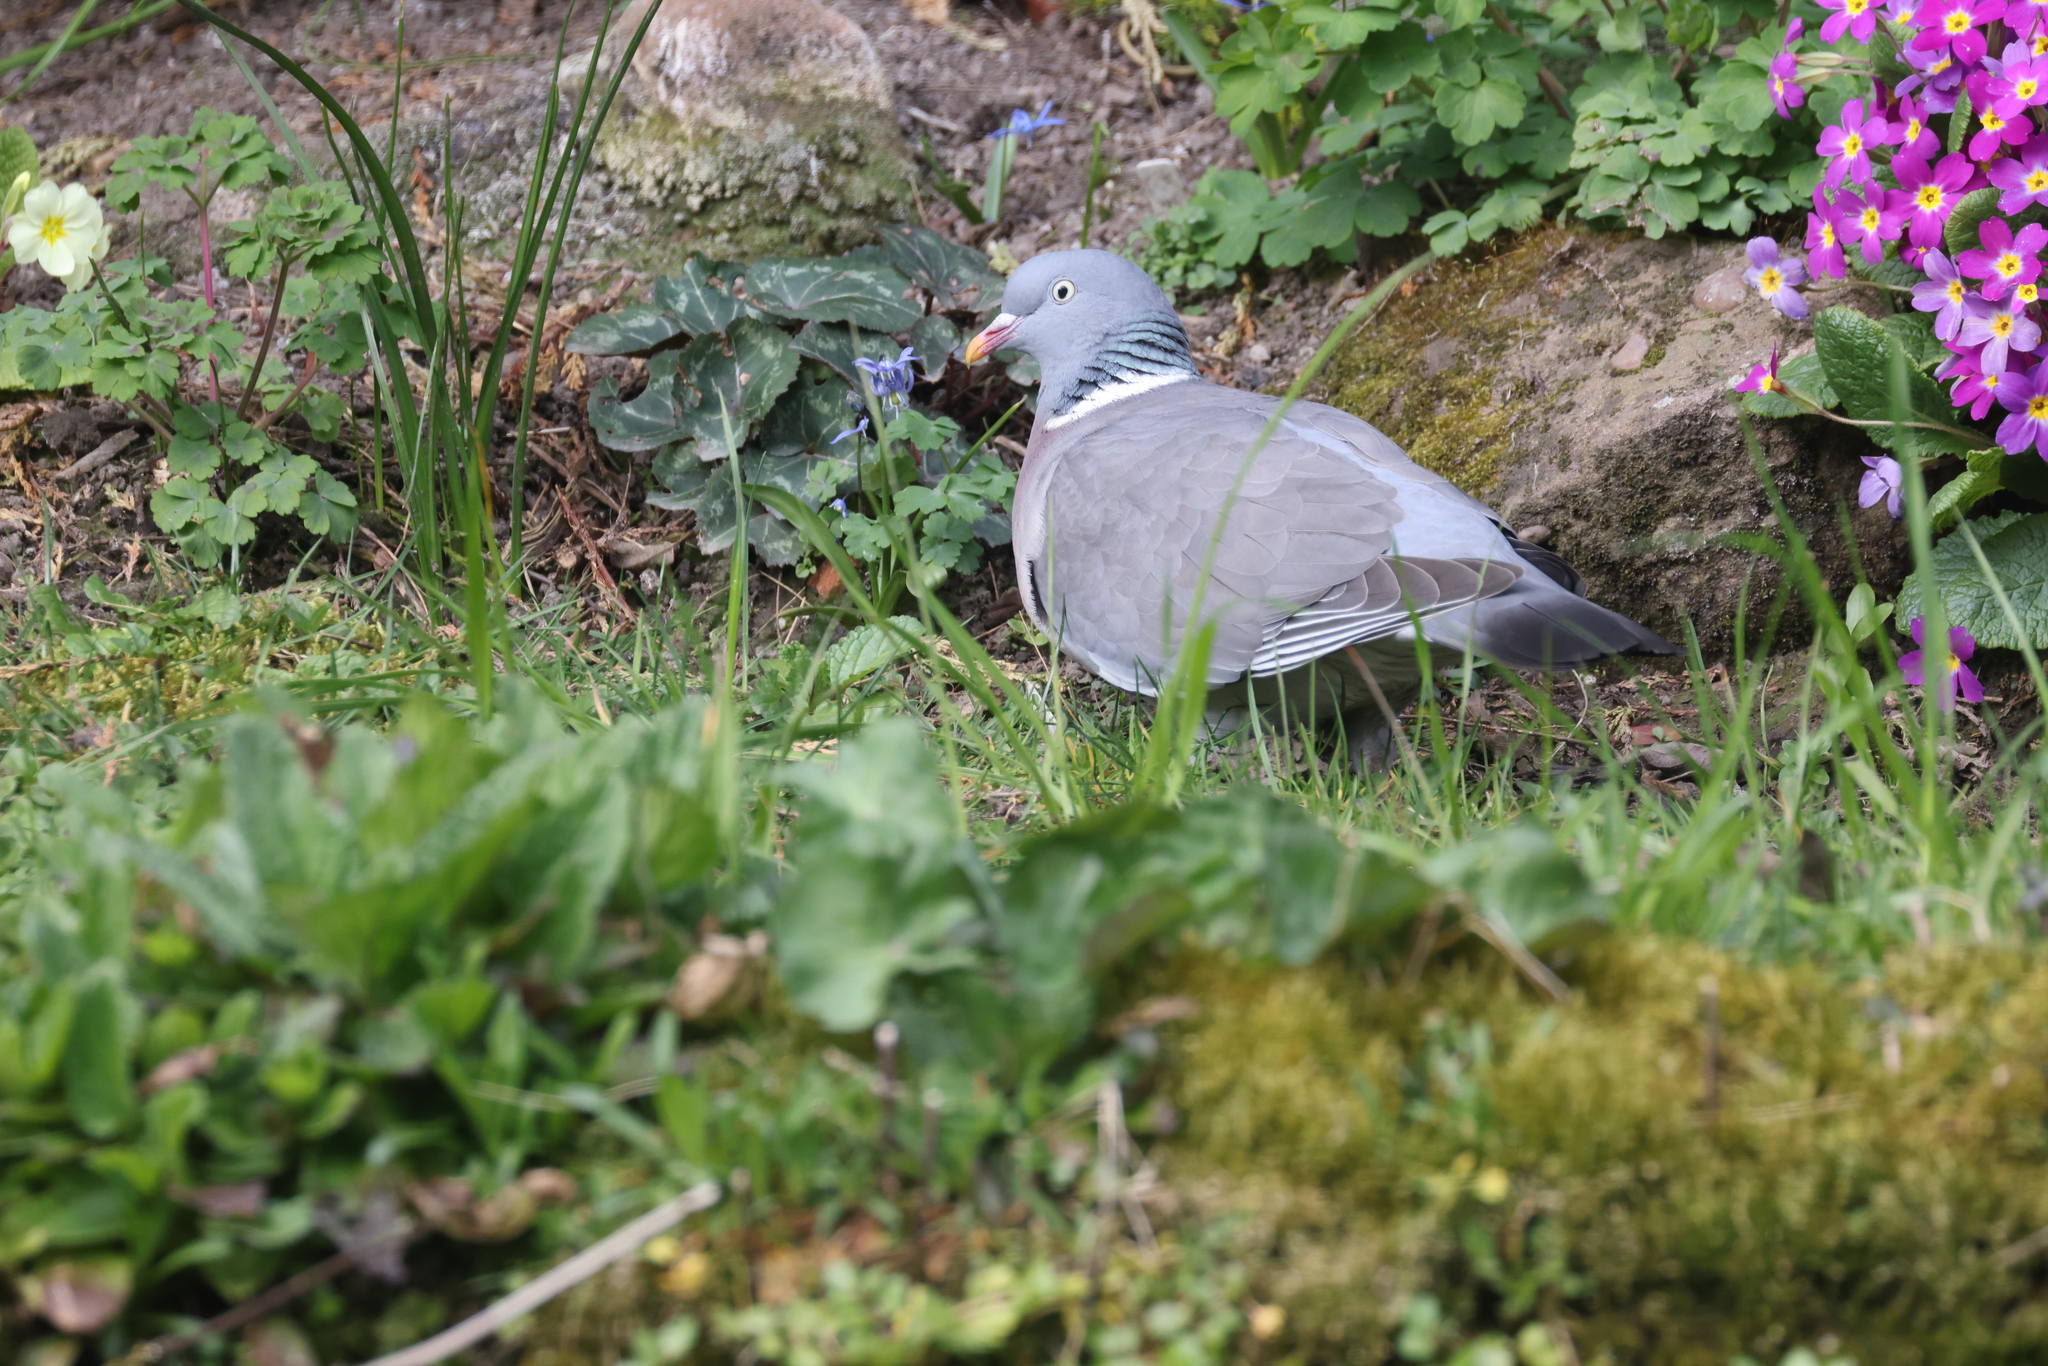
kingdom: Animalia
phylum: Chordata
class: Aves
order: Columbiformes
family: Columbidae
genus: Columba
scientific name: Columba palumbus
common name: Common wood pigeon
